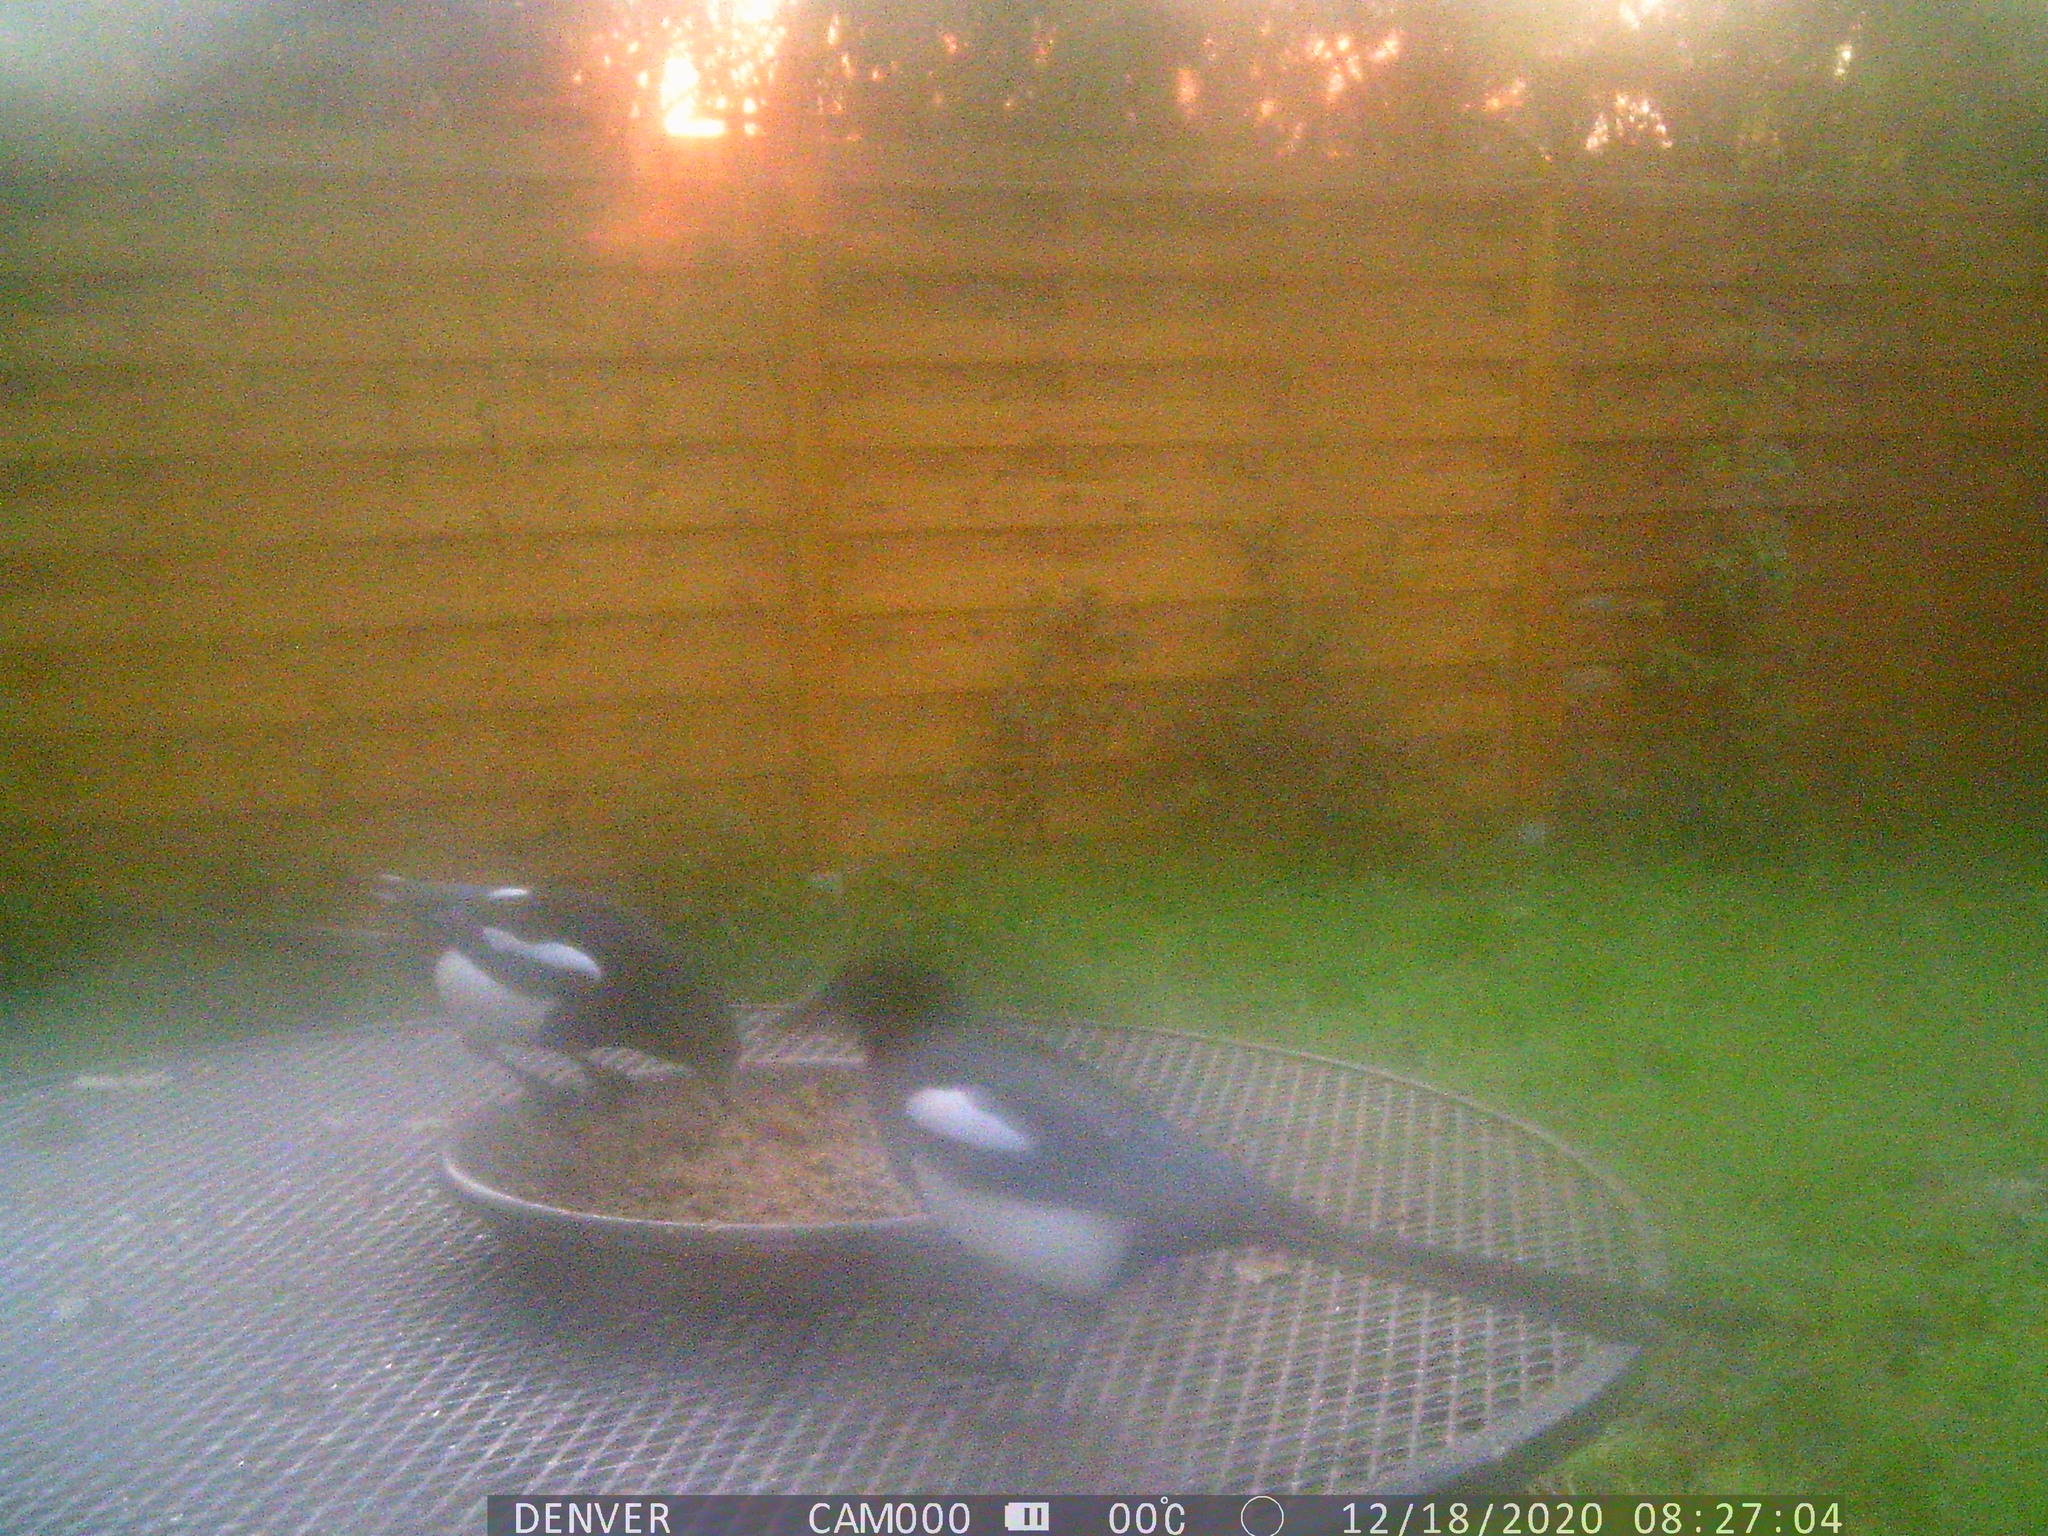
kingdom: Animalia
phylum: Chordata
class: Aves
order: Passeriformes
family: Corvidae
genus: Pica
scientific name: Pica pica
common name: Eurasian magpie
